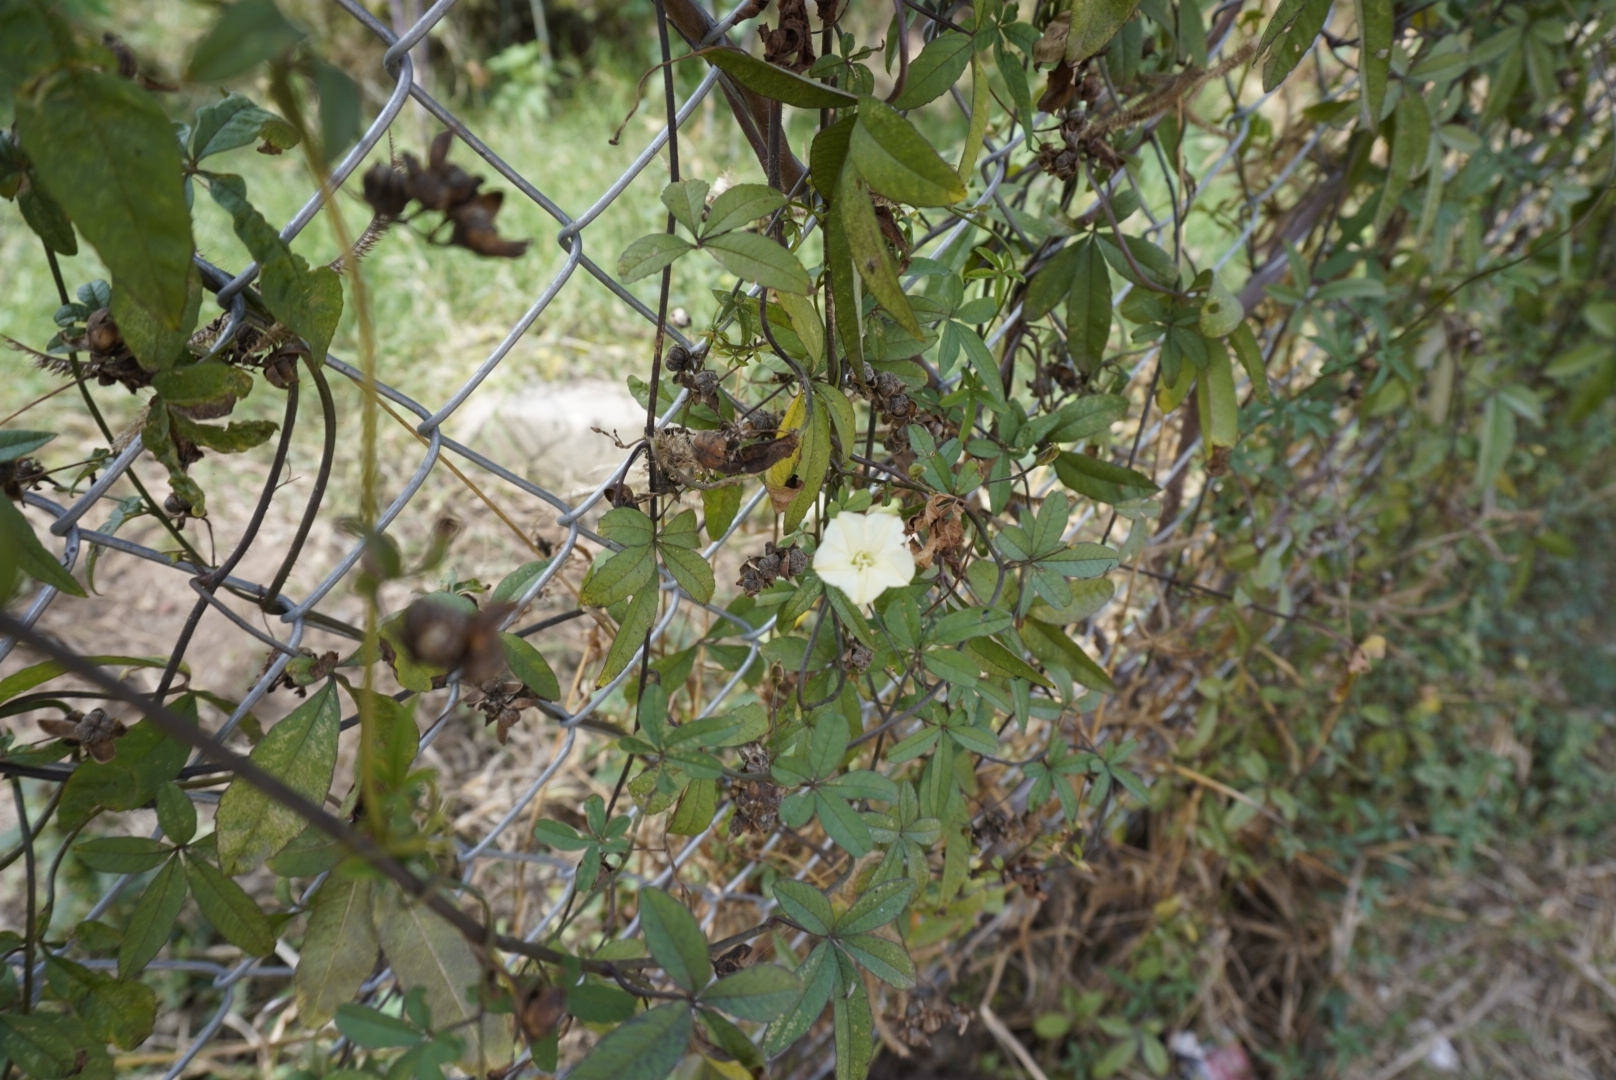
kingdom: Plantae
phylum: Tracheophyta
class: Magnoliopsida
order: Solanales
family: Convolvulaceae
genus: Distimake
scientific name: Distimake quinquefolius
